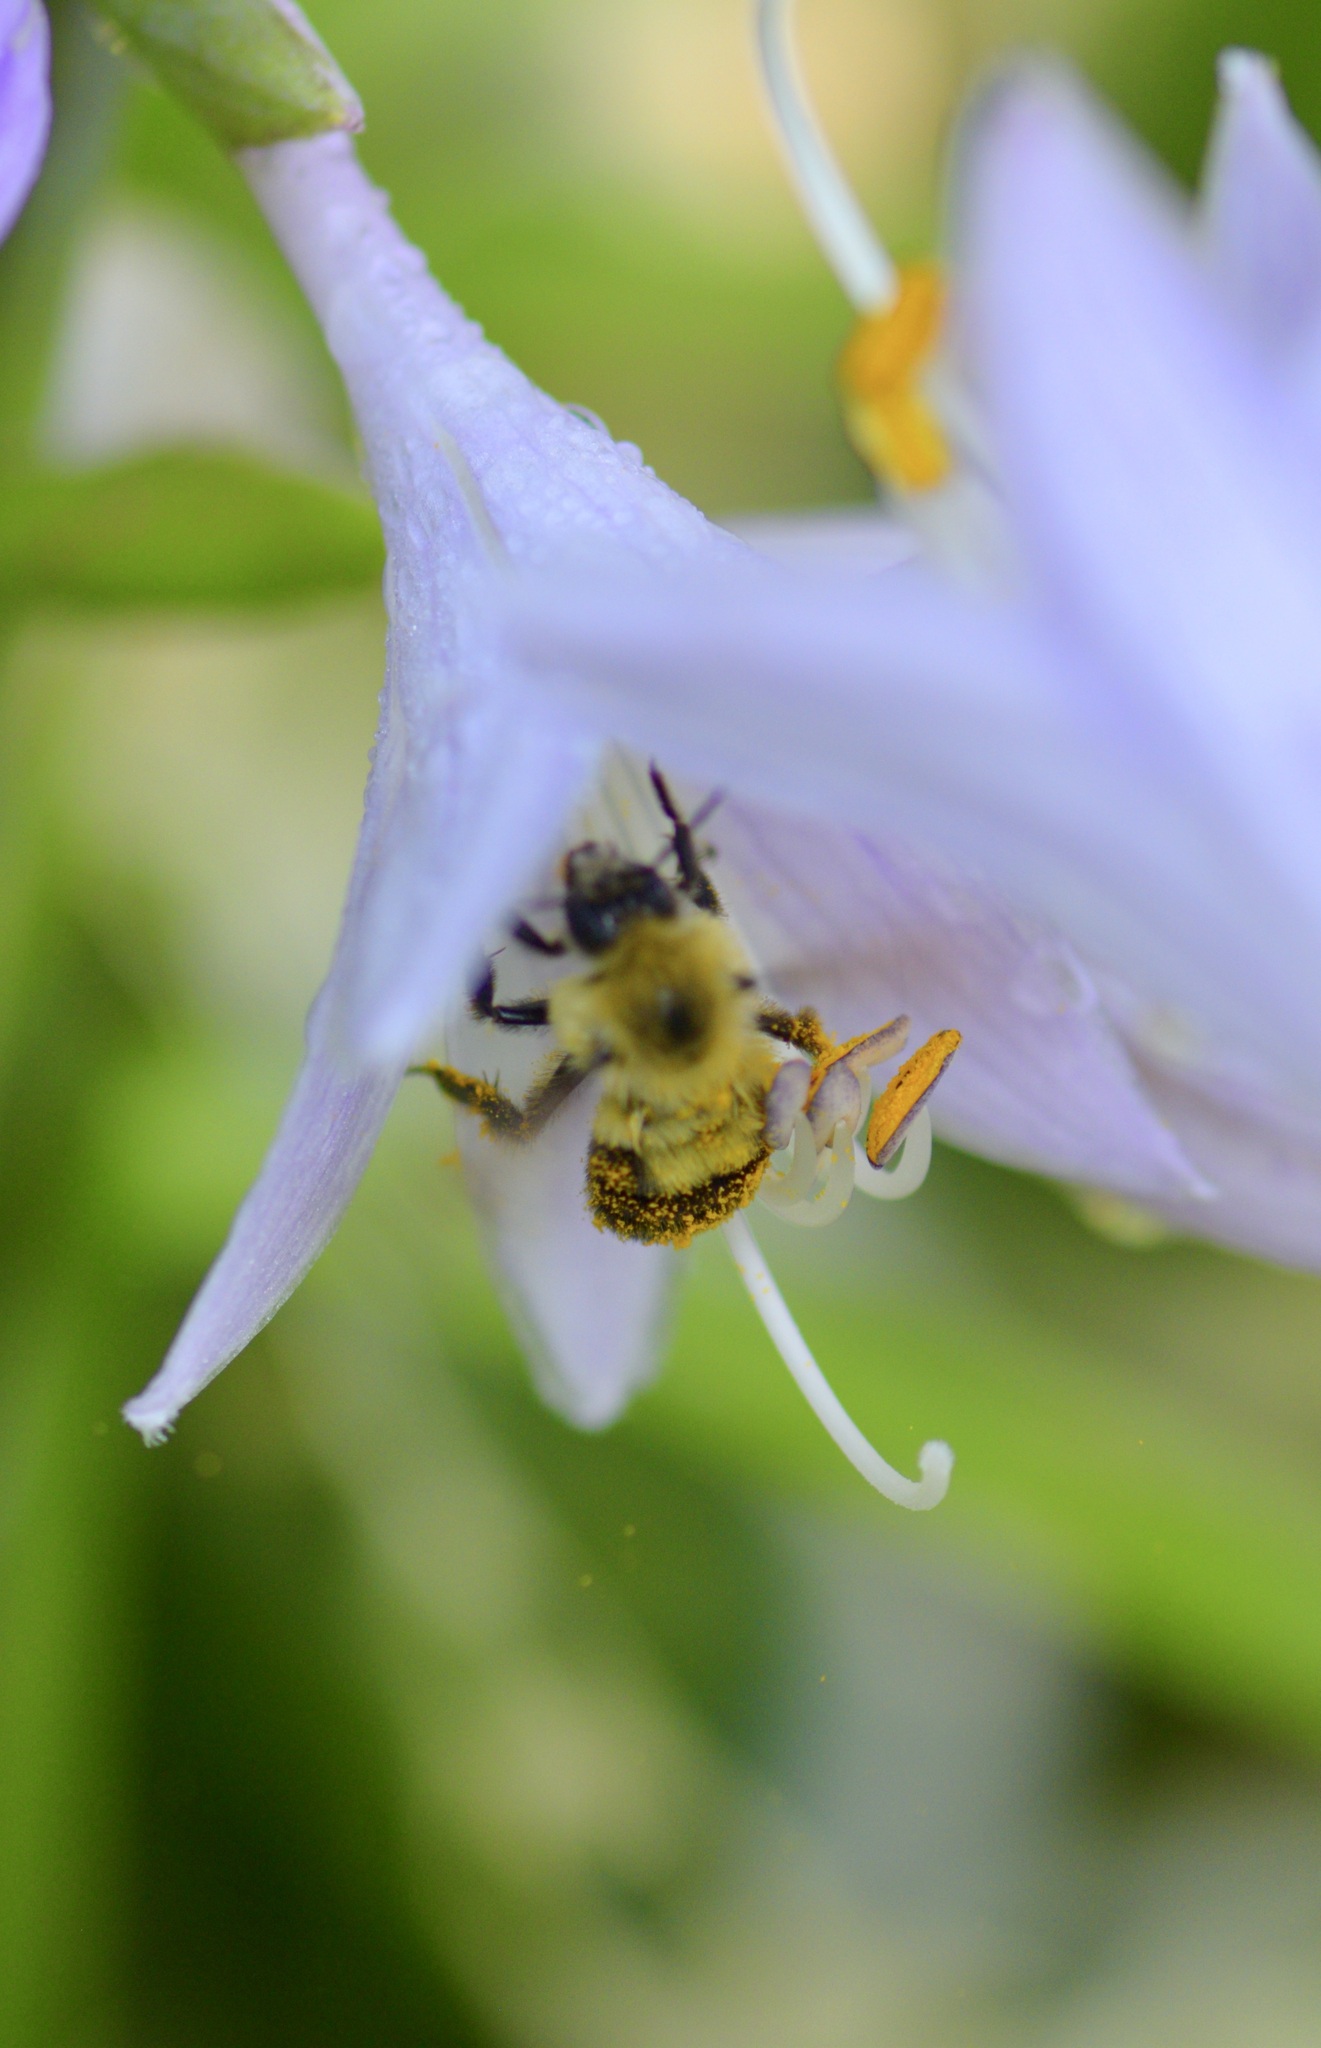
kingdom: Animalia
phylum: Arthropoda
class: Insecta
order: Hymenoptera
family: Apidae
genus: Bombus
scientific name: Bombus bimaculatus
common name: Two-spotted bumble bee
